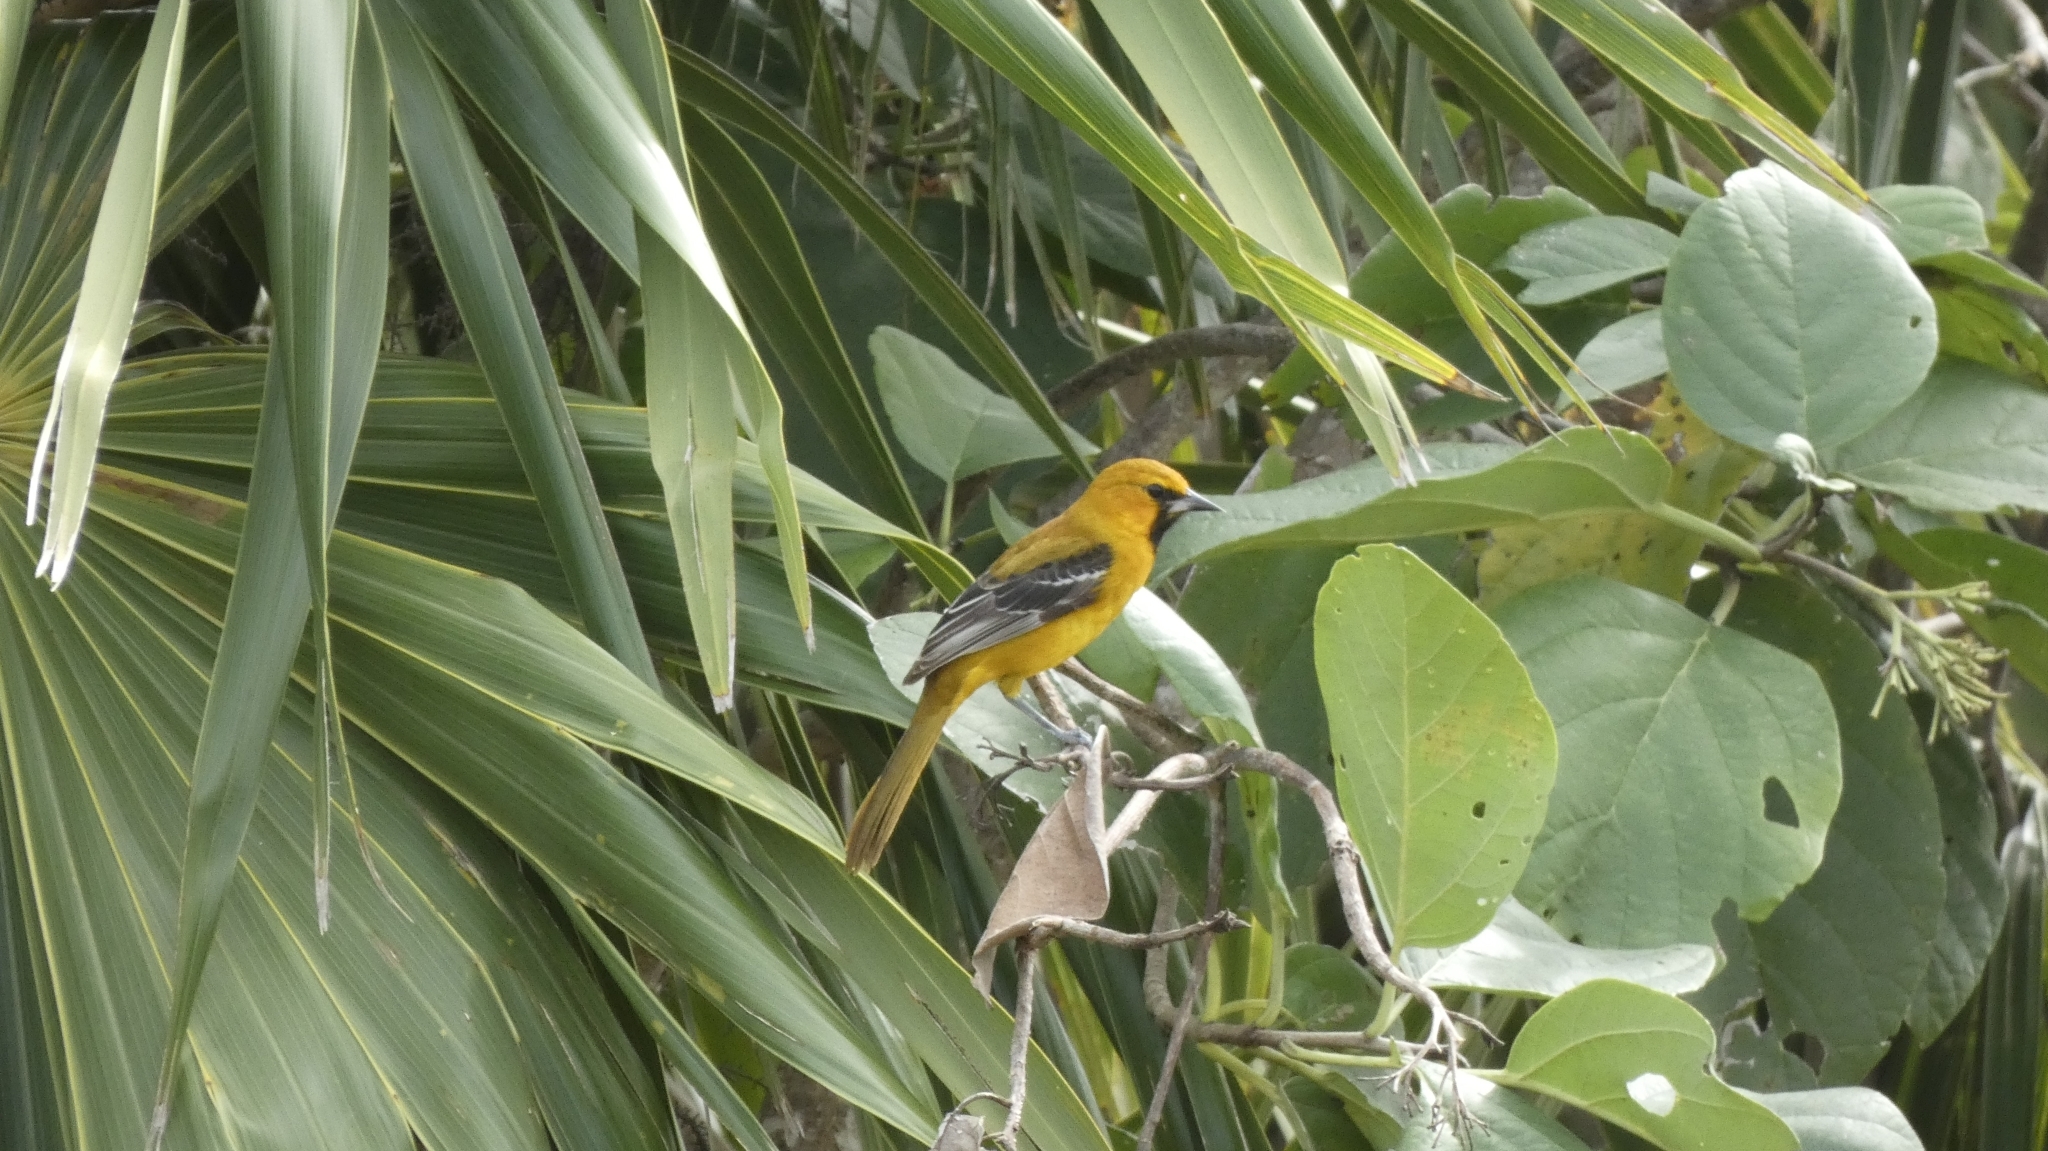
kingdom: Animalia
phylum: Chordata
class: Aves
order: Passeriformes
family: Icteridae
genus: Icterus
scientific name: Icterus auratus
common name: Orange oriole
